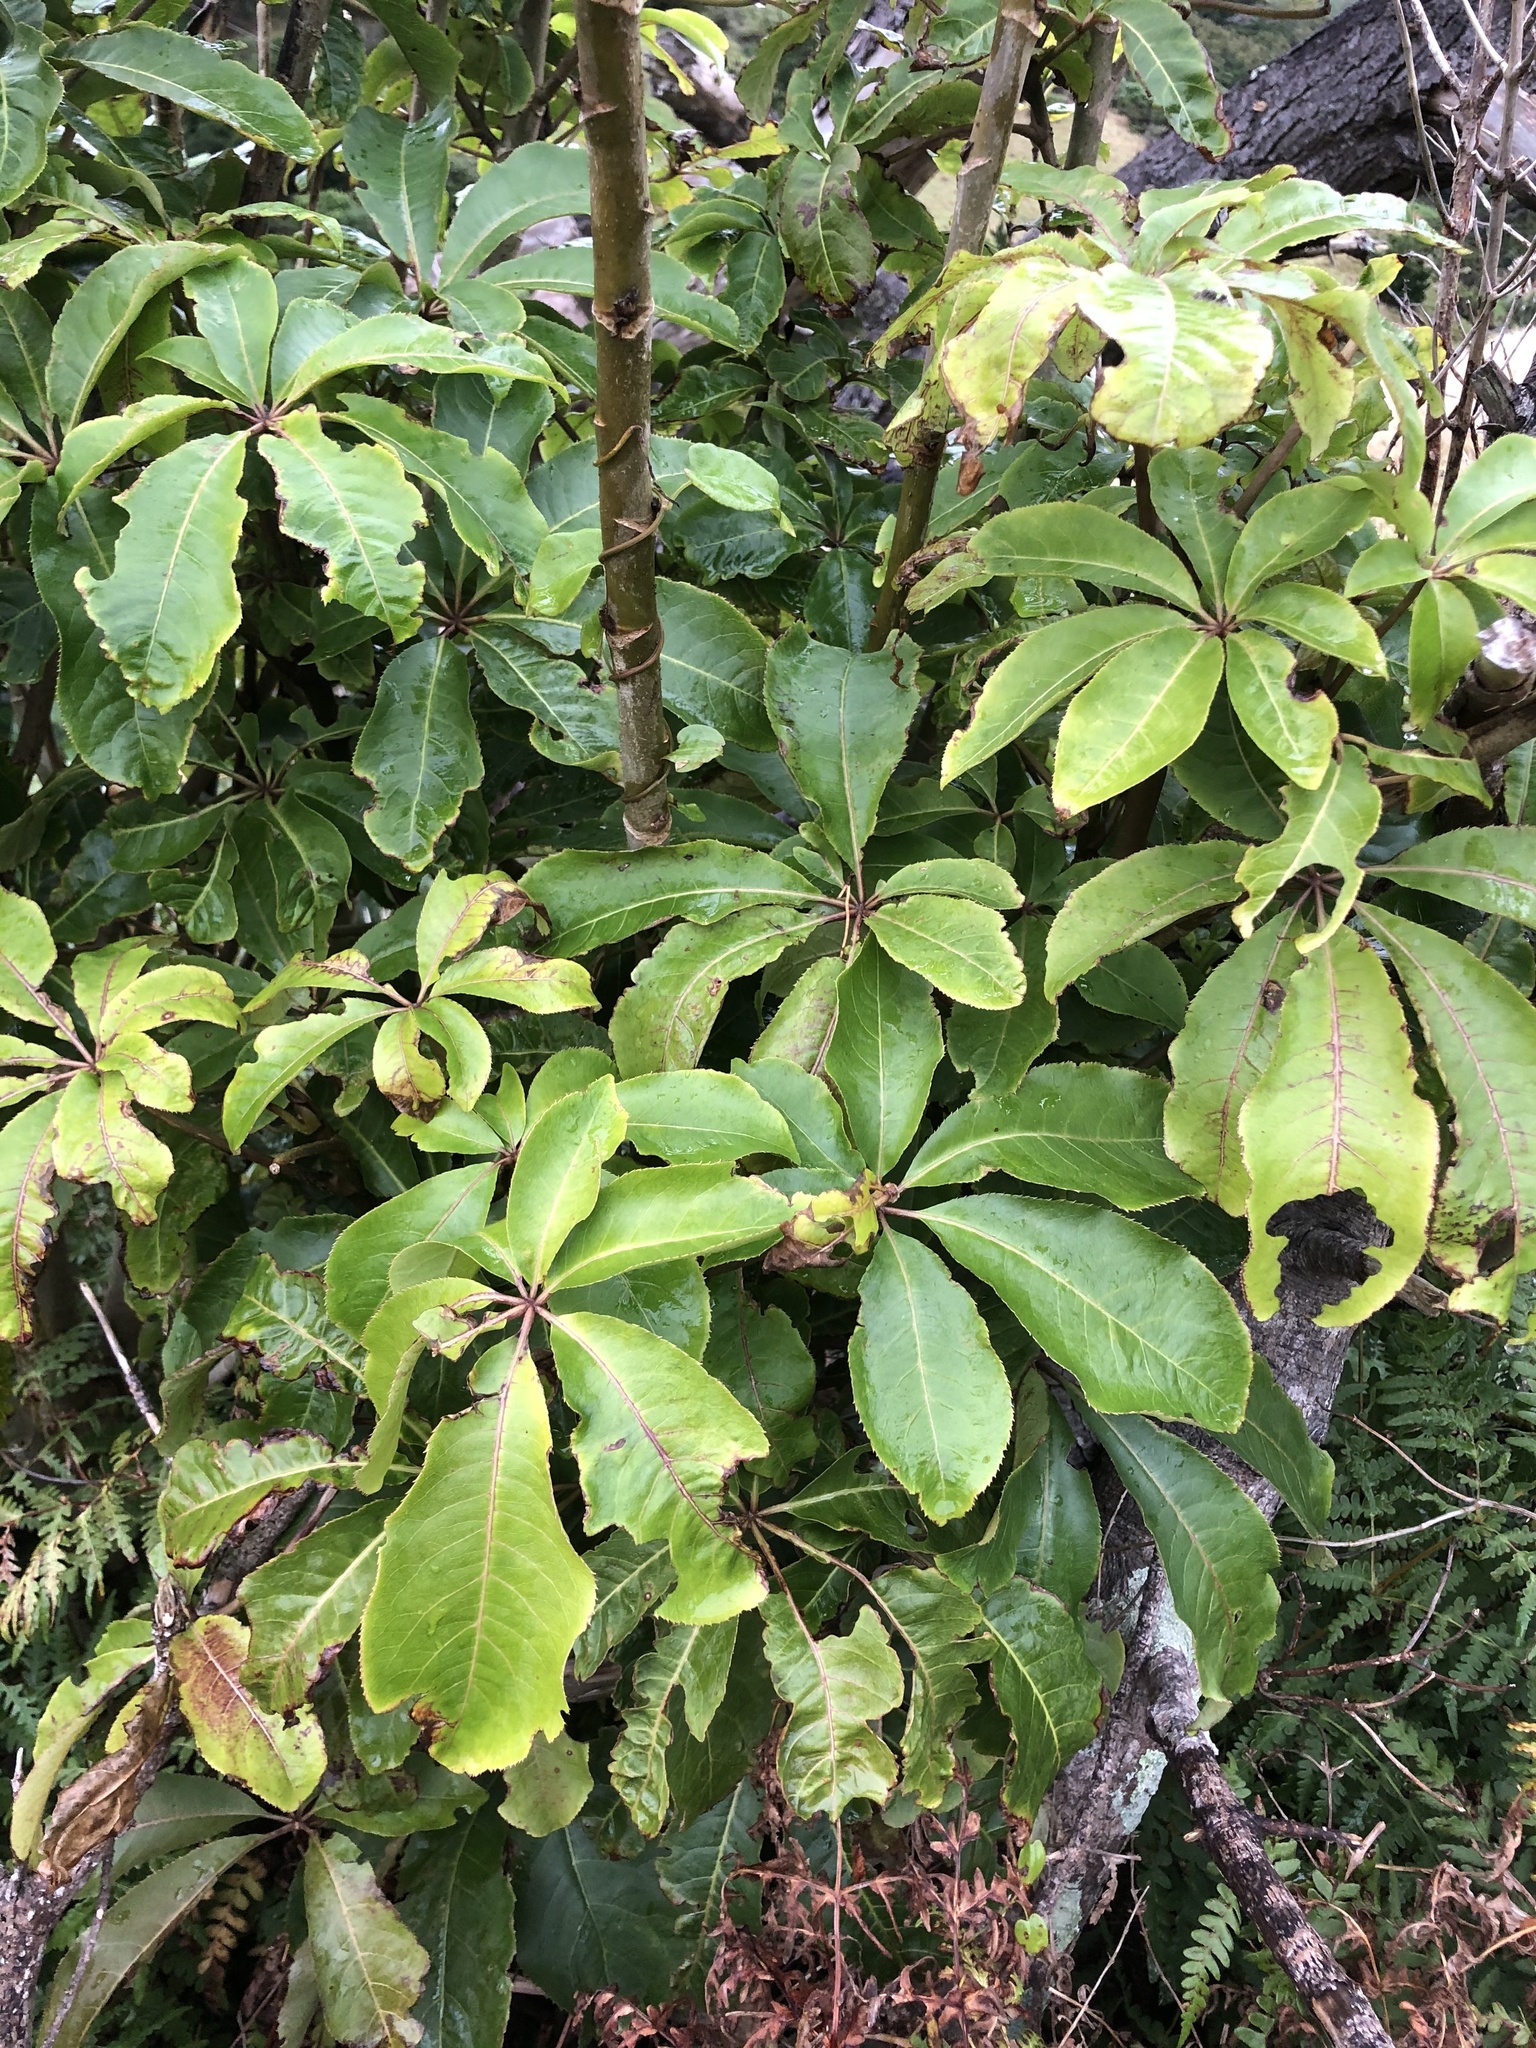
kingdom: Plantae
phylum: Tracheophyta
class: Magnoliopsida
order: Apiales
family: Araliaceae
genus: Schefflera
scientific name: Schefflera digitata
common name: Pate
